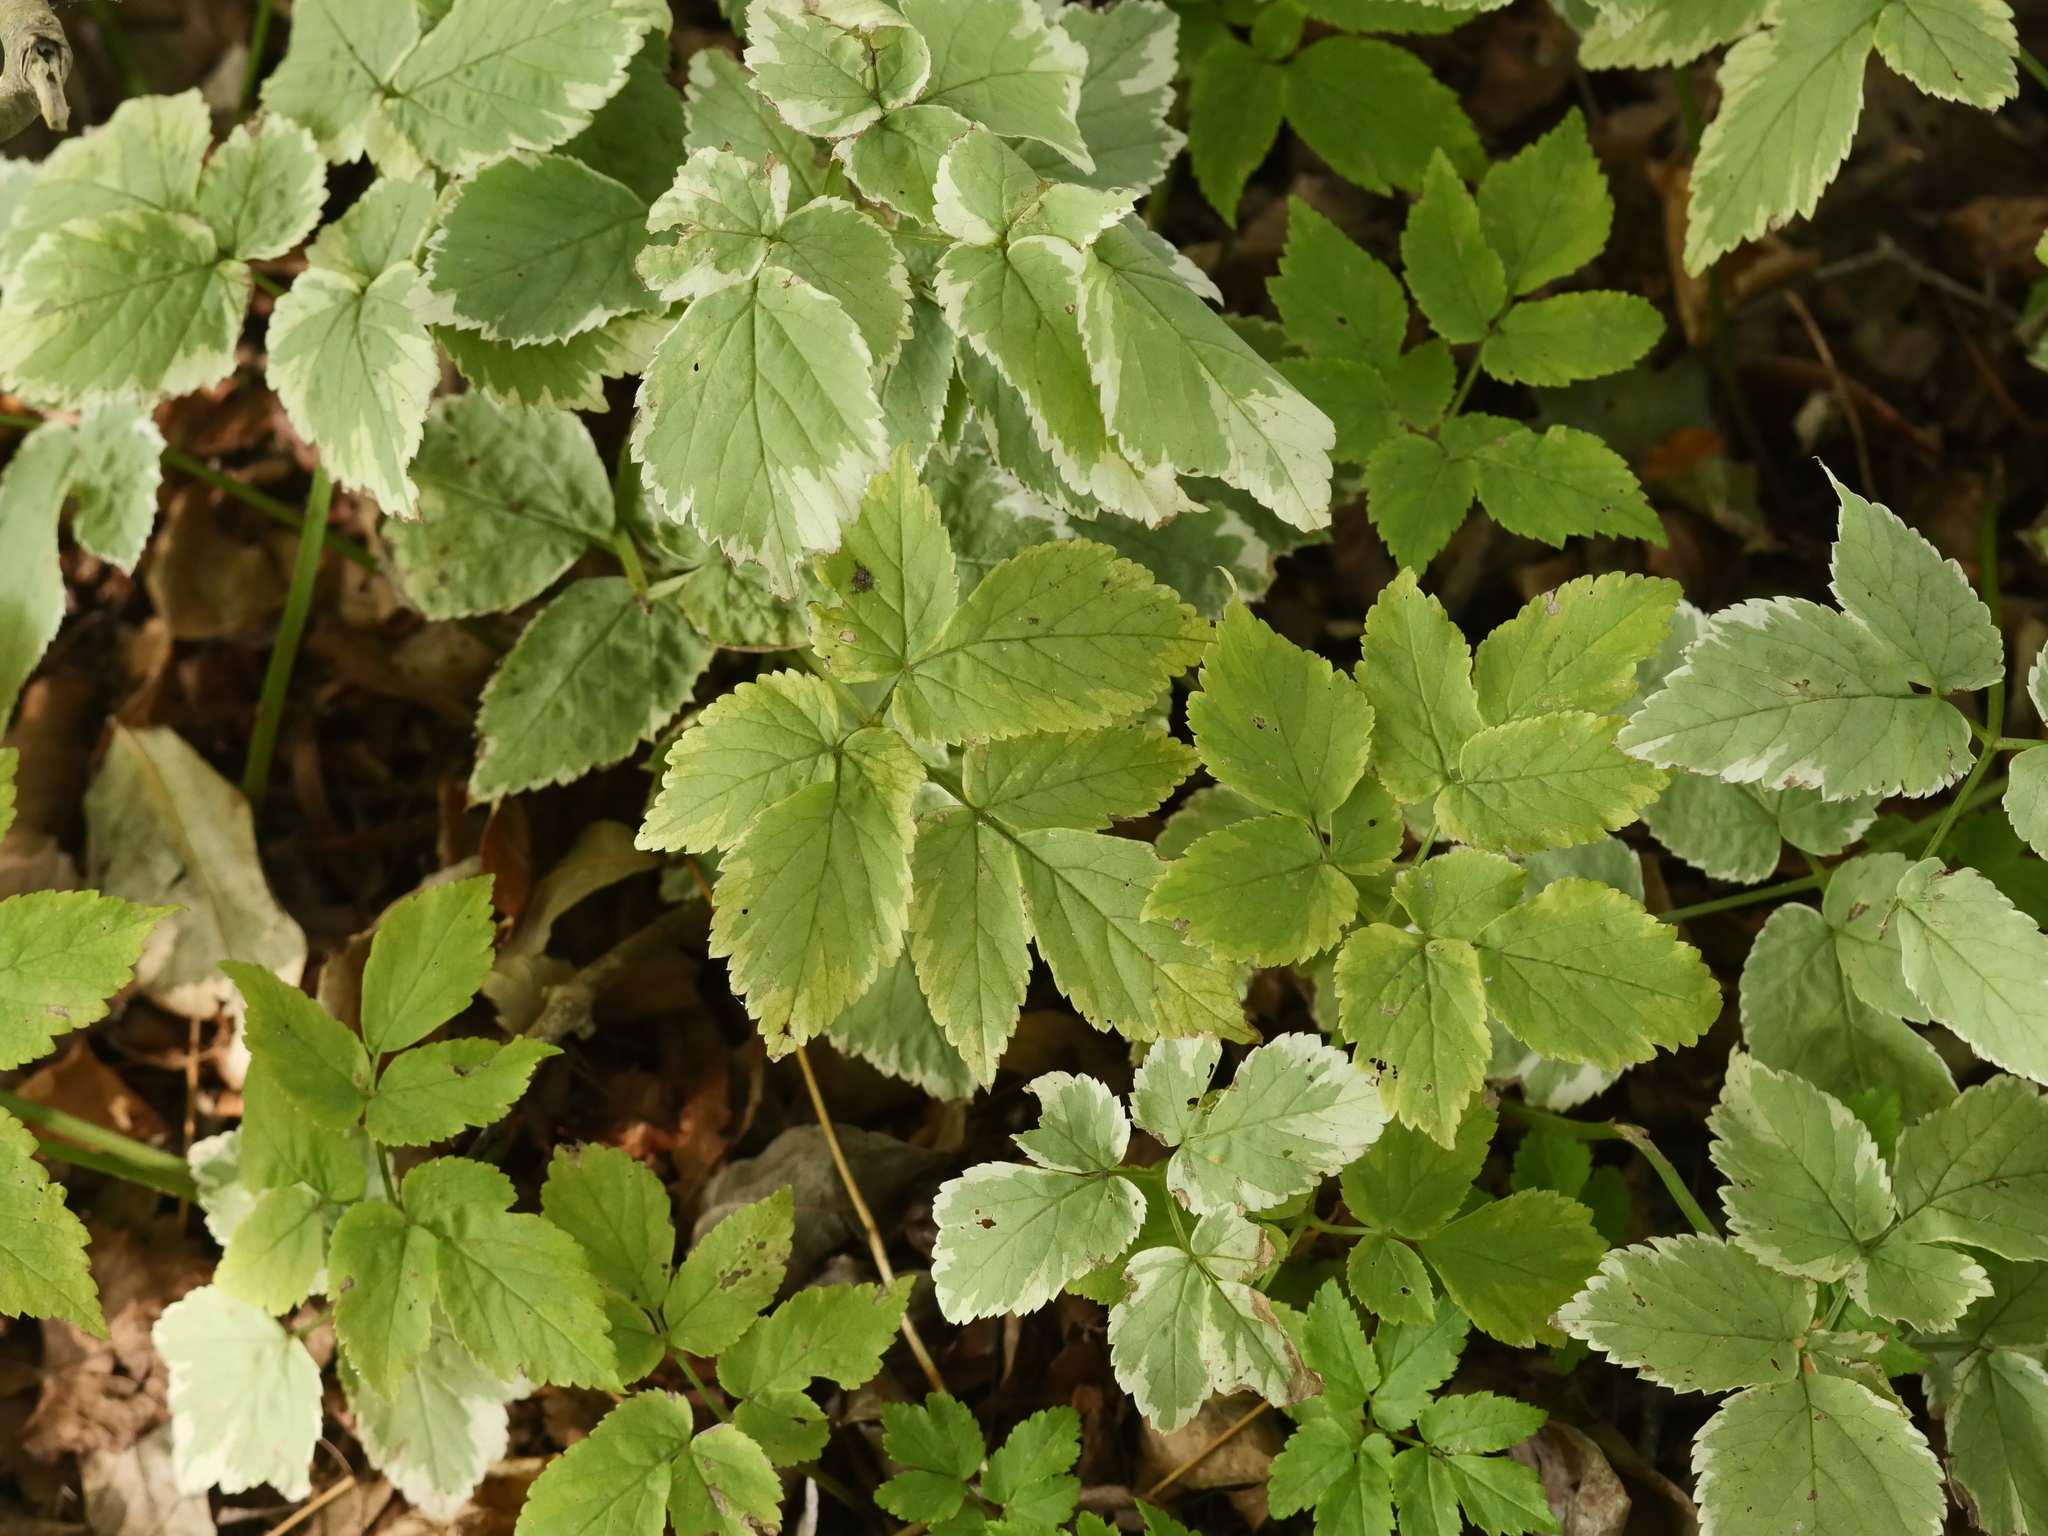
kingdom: Plantae
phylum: Tracheophyta
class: Magnoliopsida
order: Apiales
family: Apiaceae
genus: Aegopodium
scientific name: Aegopodium podagraria
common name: Ground-elder
